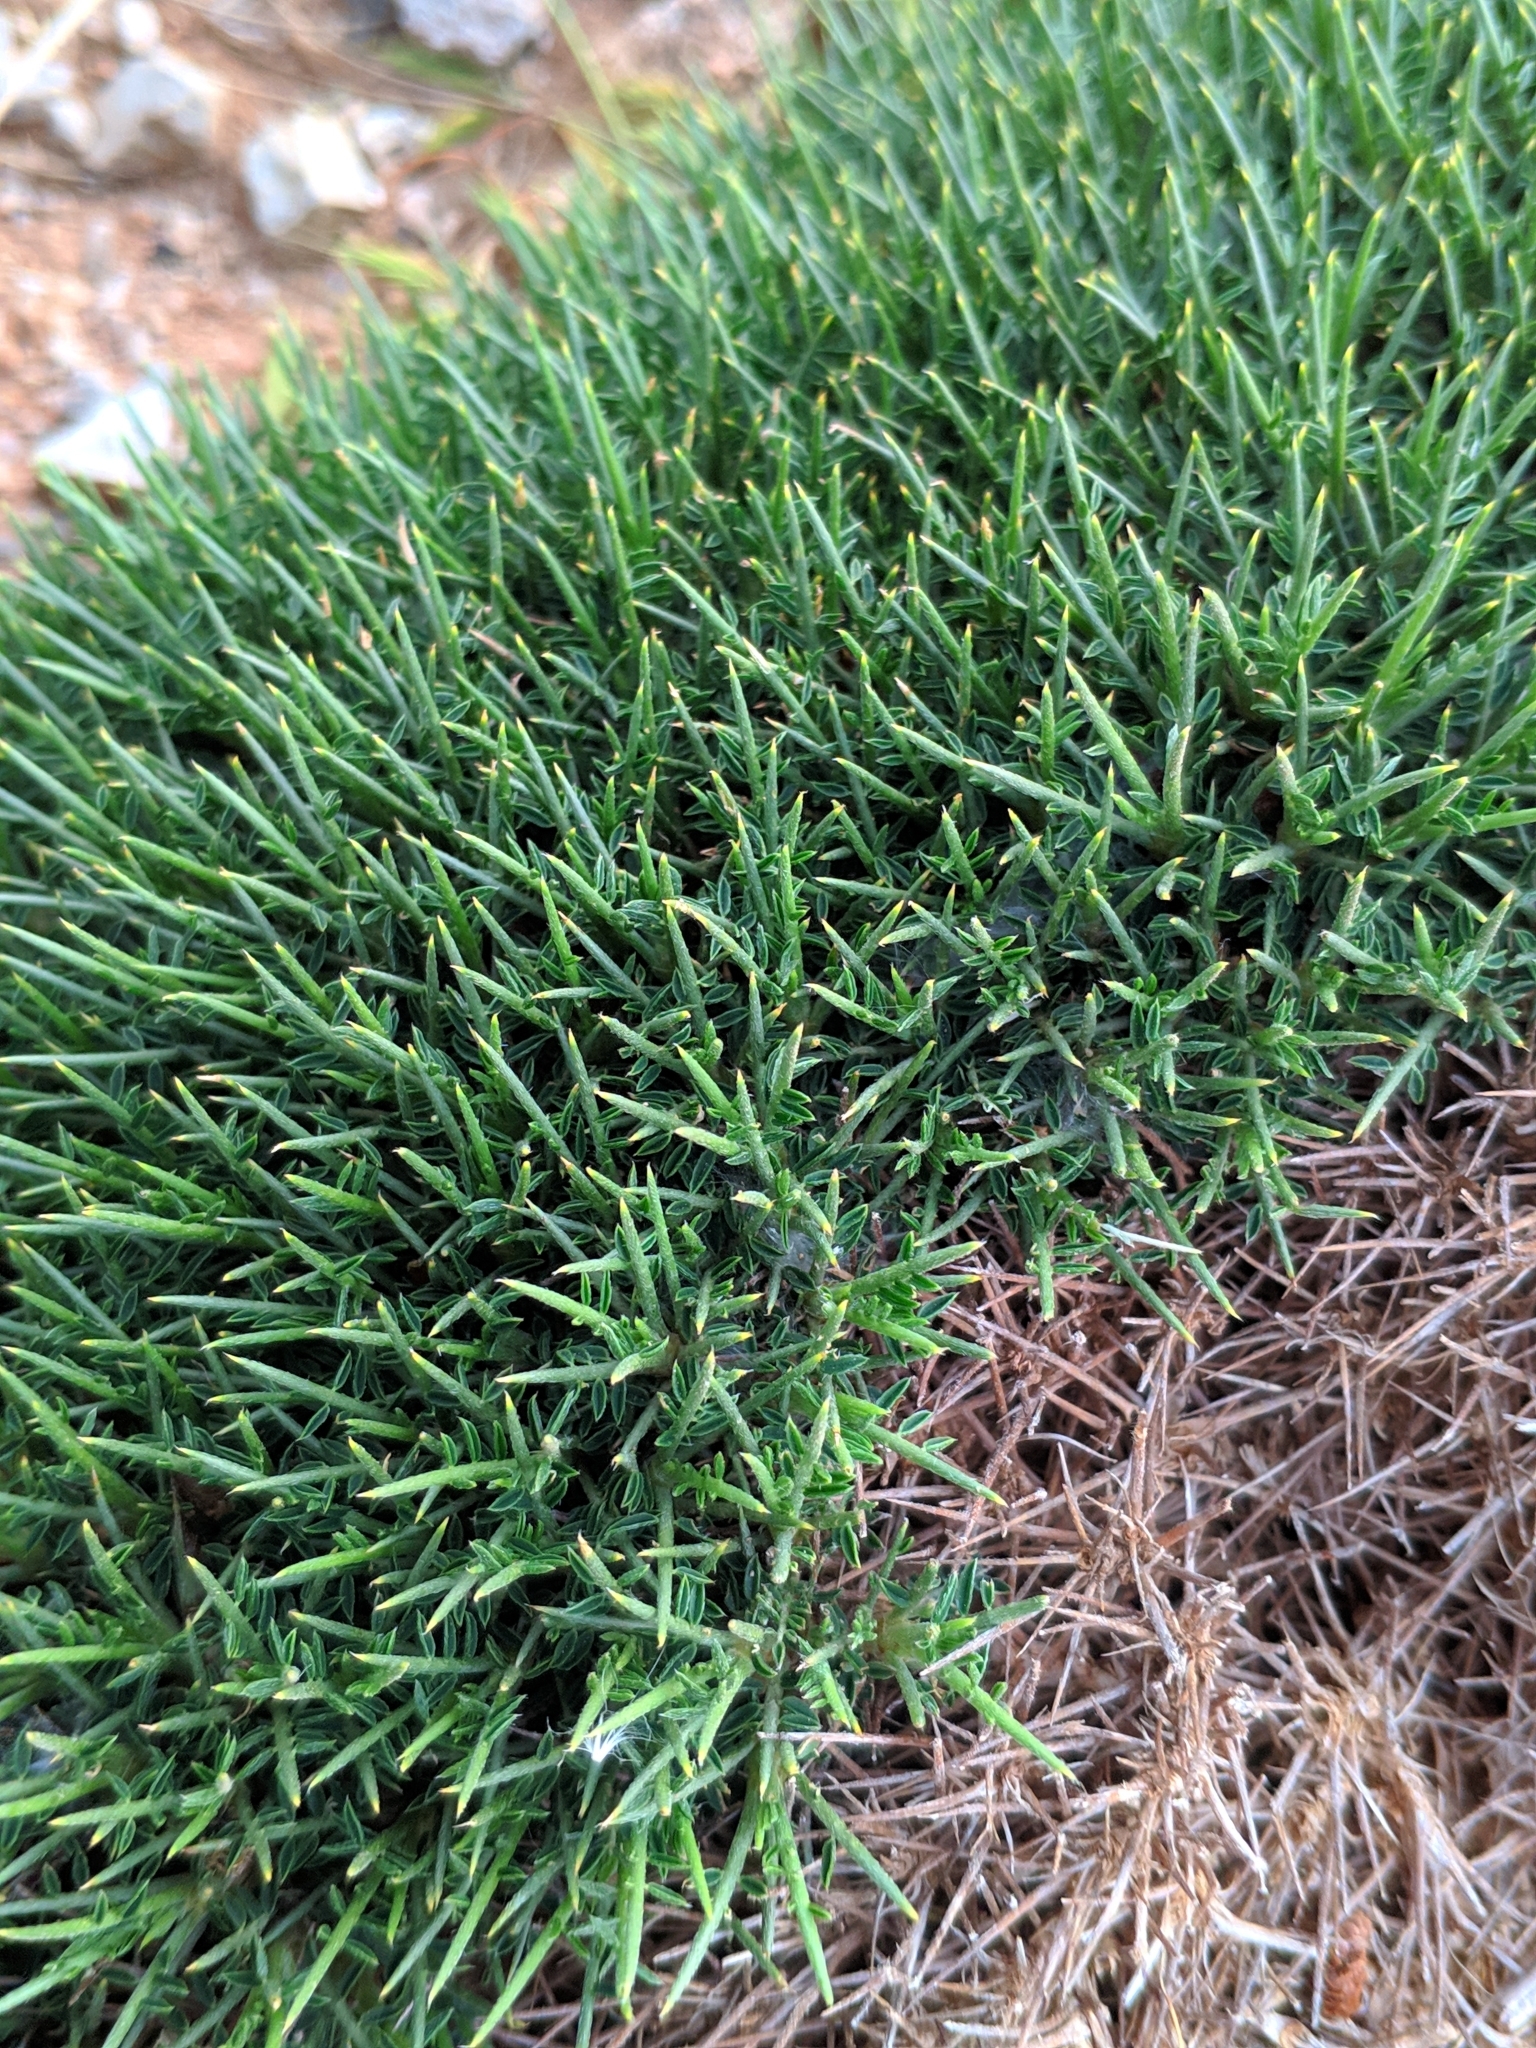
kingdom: Plantae
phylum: Tracheophyta
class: Magnoliopsida
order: Fabales
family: Fabaceae
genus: Astragalus
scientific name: Astragalus balearicus
